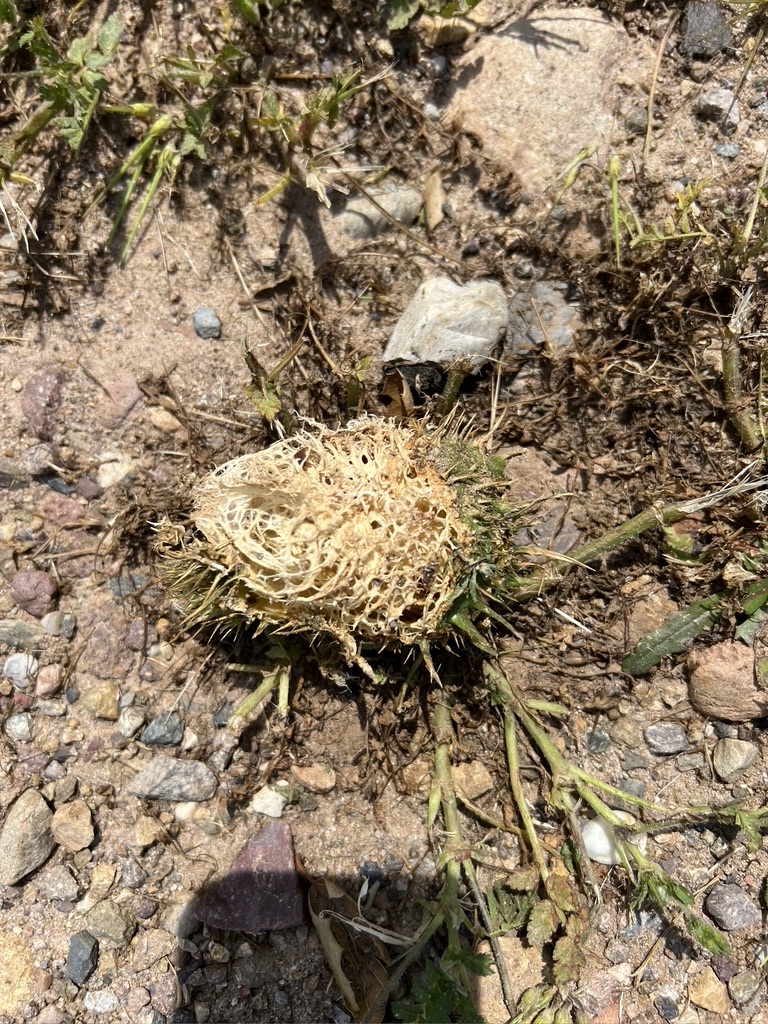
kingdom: Plantae
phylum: Tracheophyta
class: Magnoliopsida
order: Cucurbitales
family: Cucurbitaceae
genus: Marah
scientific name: Marah macrocarpa
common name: Cucamonga manroot
